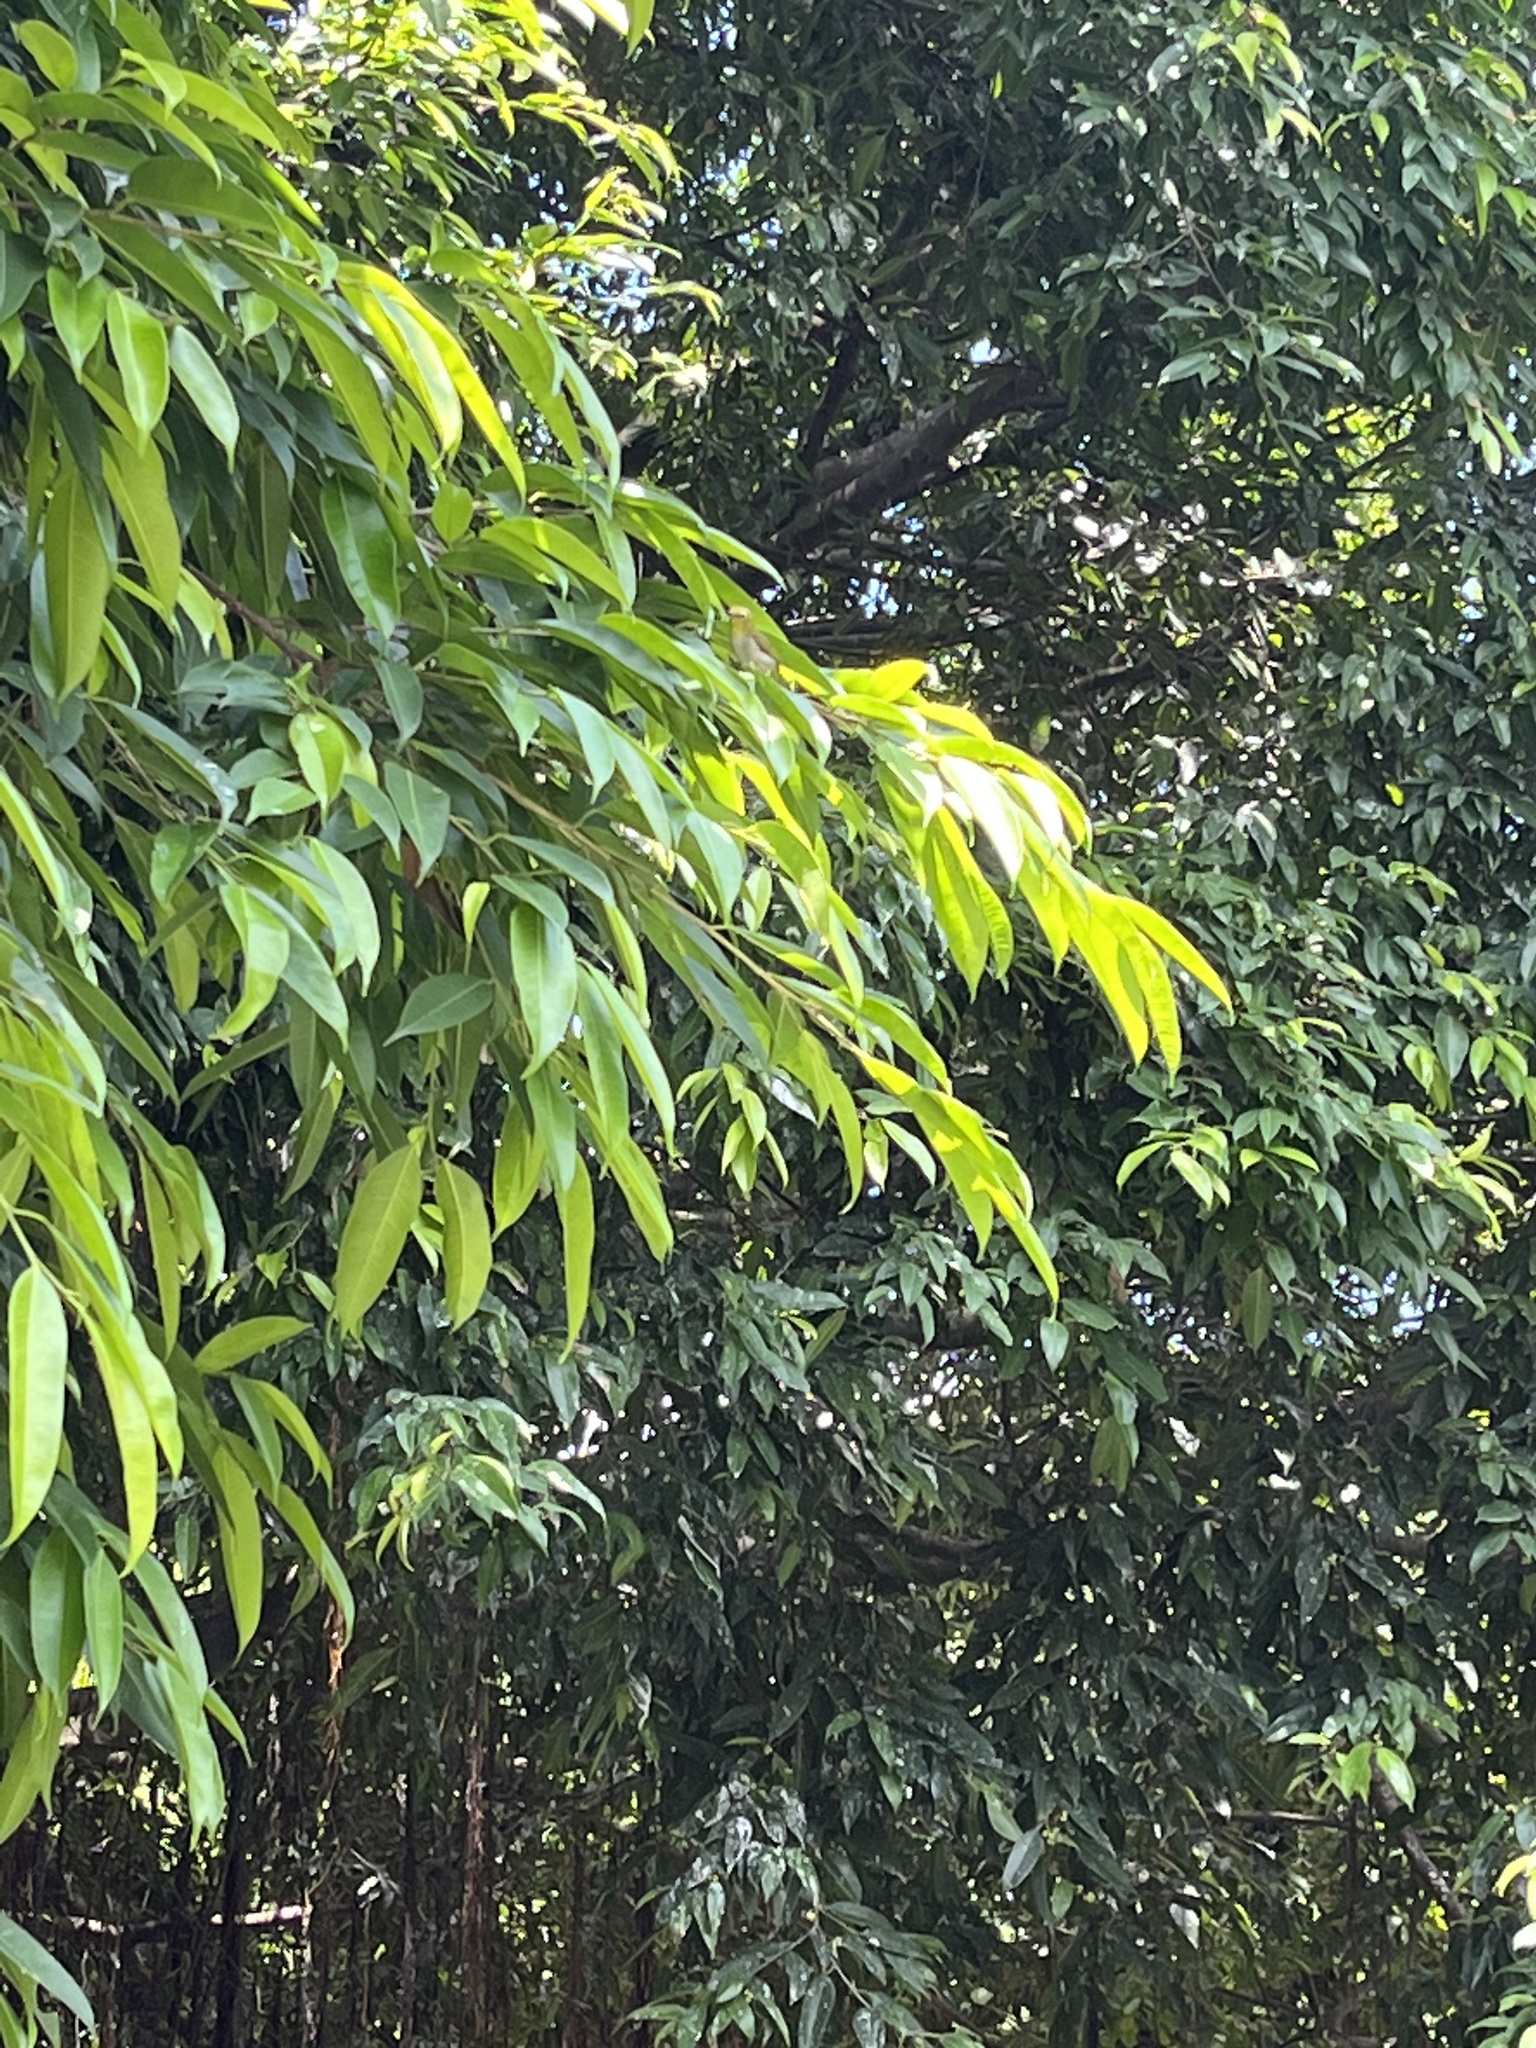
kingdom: Animalia
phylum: Chordata
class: Aves
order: Passeriformes
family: Zosteropidae
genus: Zosterops
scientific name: Zosterops simplex
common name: Swinhoe's white-eye
